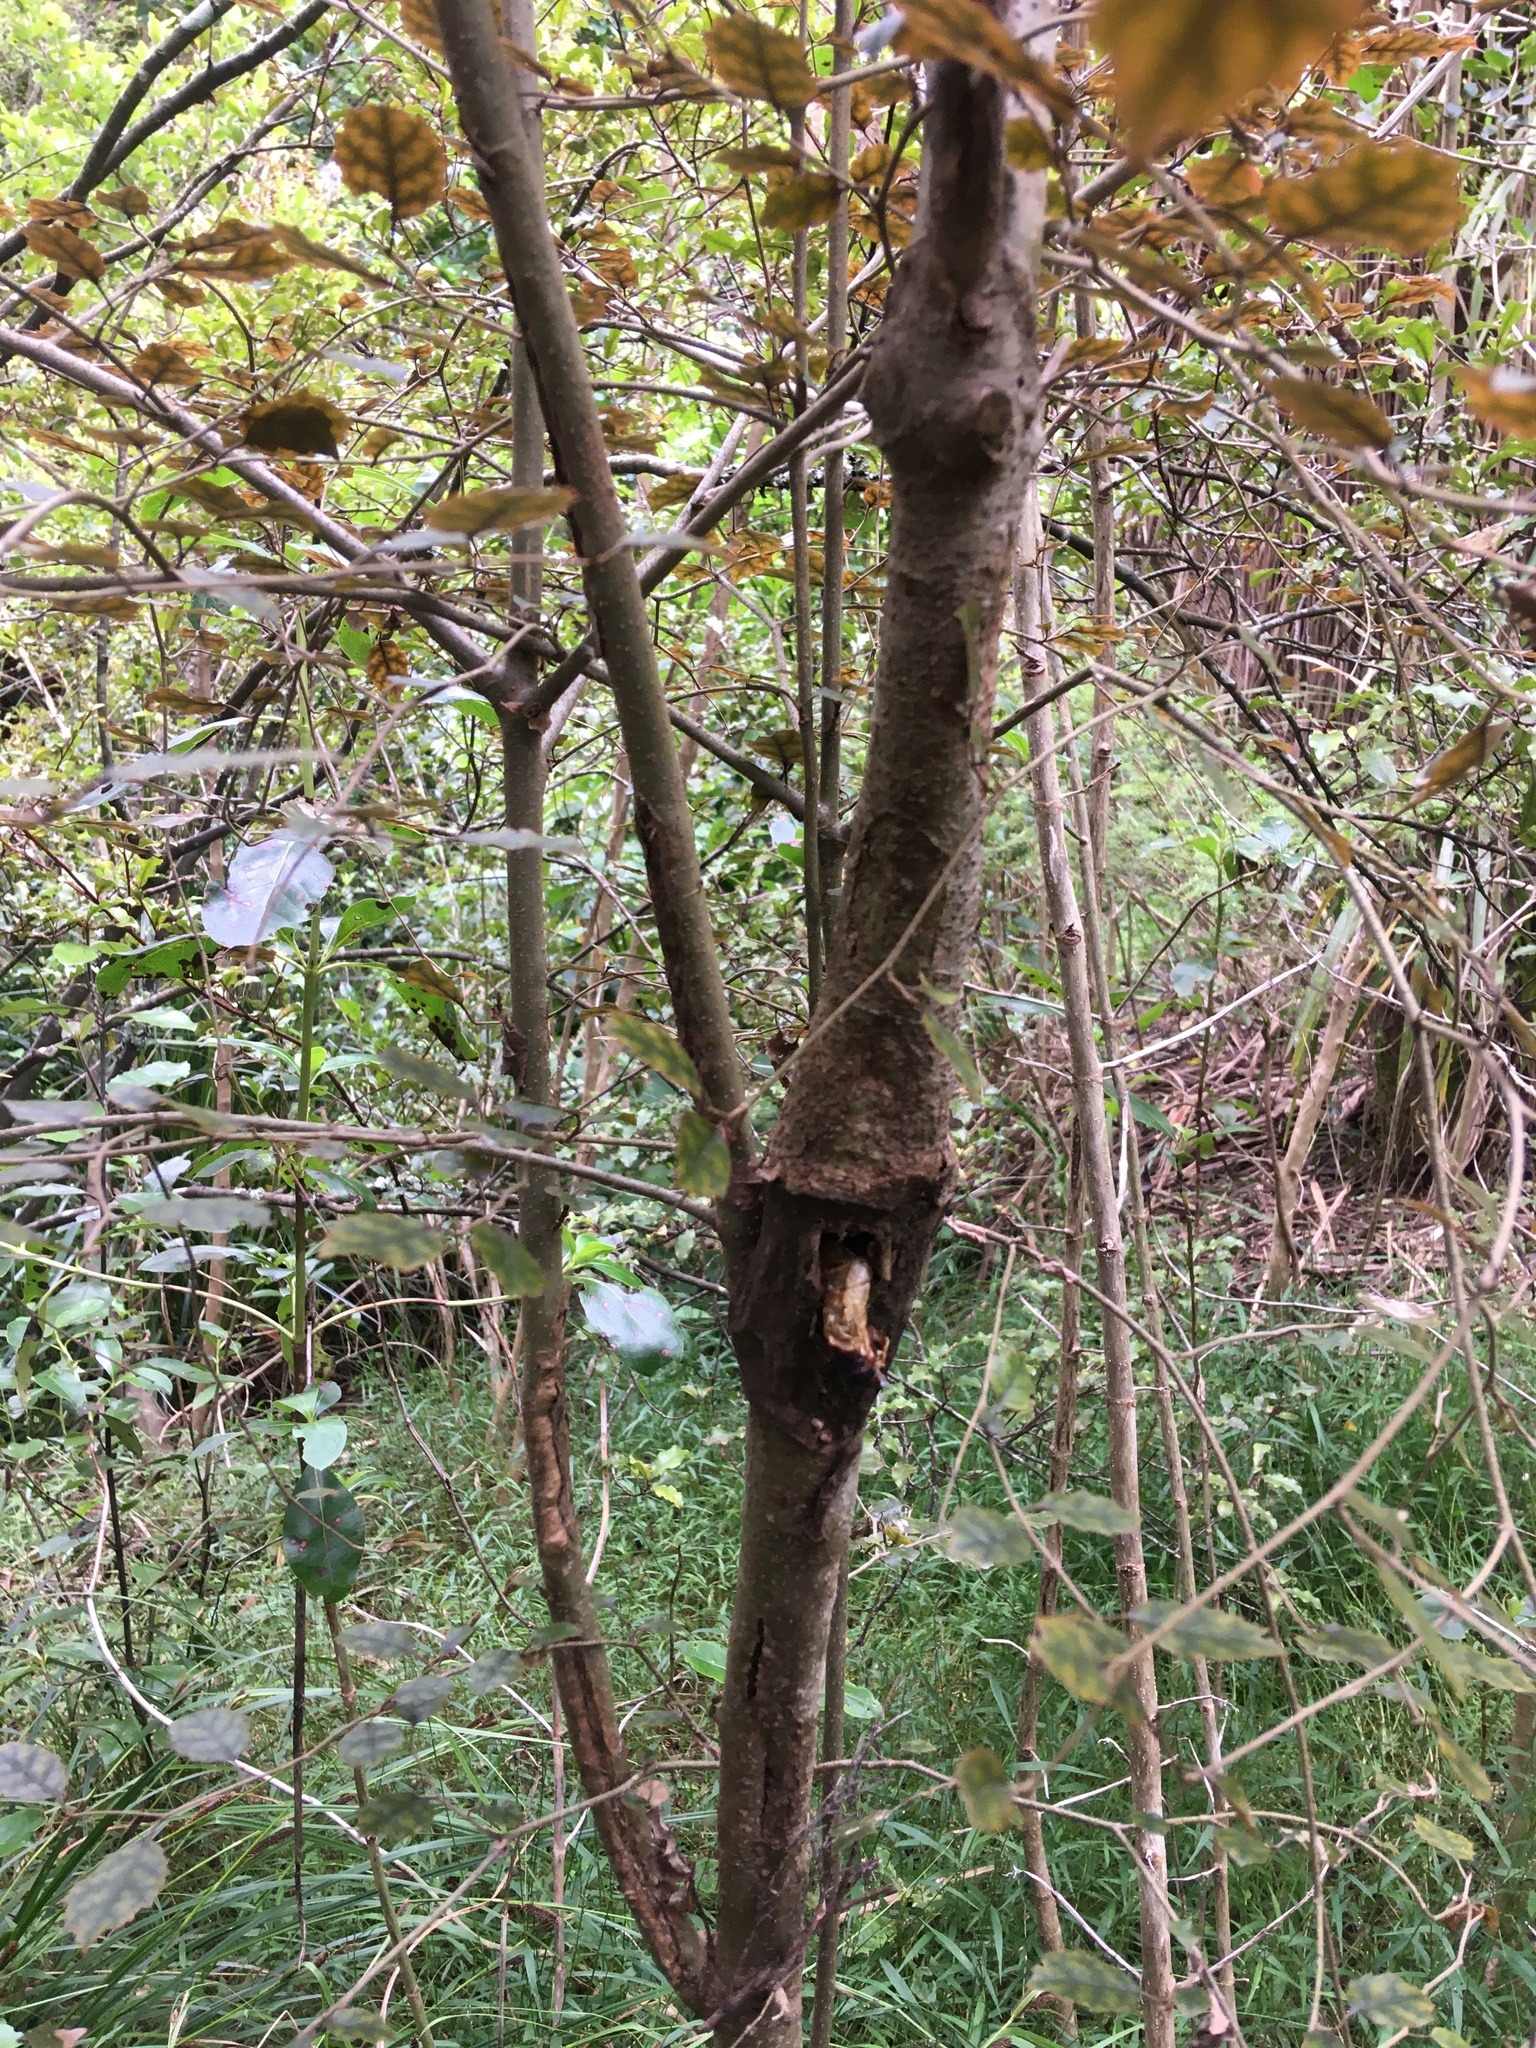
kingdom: Animalia
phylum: Arthropoda
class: Insecta
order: Lepidoptera
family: Hepialidae
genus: Aenetus
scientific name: Aenetus virescens
